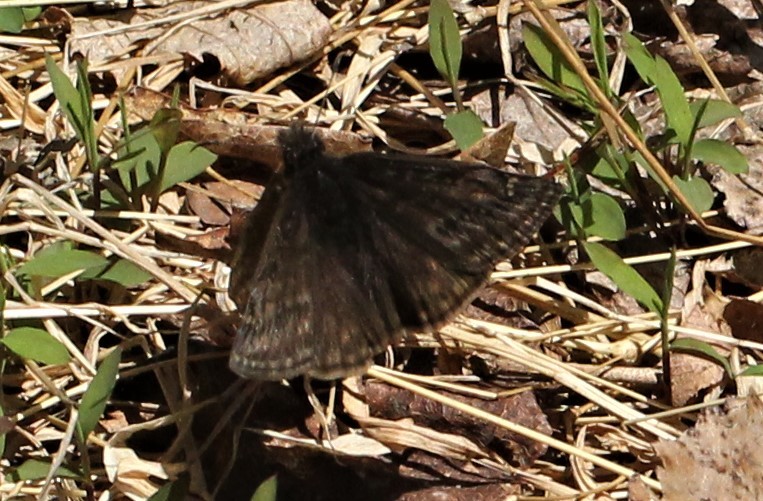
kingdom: Animalia
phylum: Arthropoda
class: Insecta
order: Lepidoptera
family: Hesperiidae
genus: Erynnis
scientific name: Erynnis juvenalis
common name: Juvenal's duskywing
